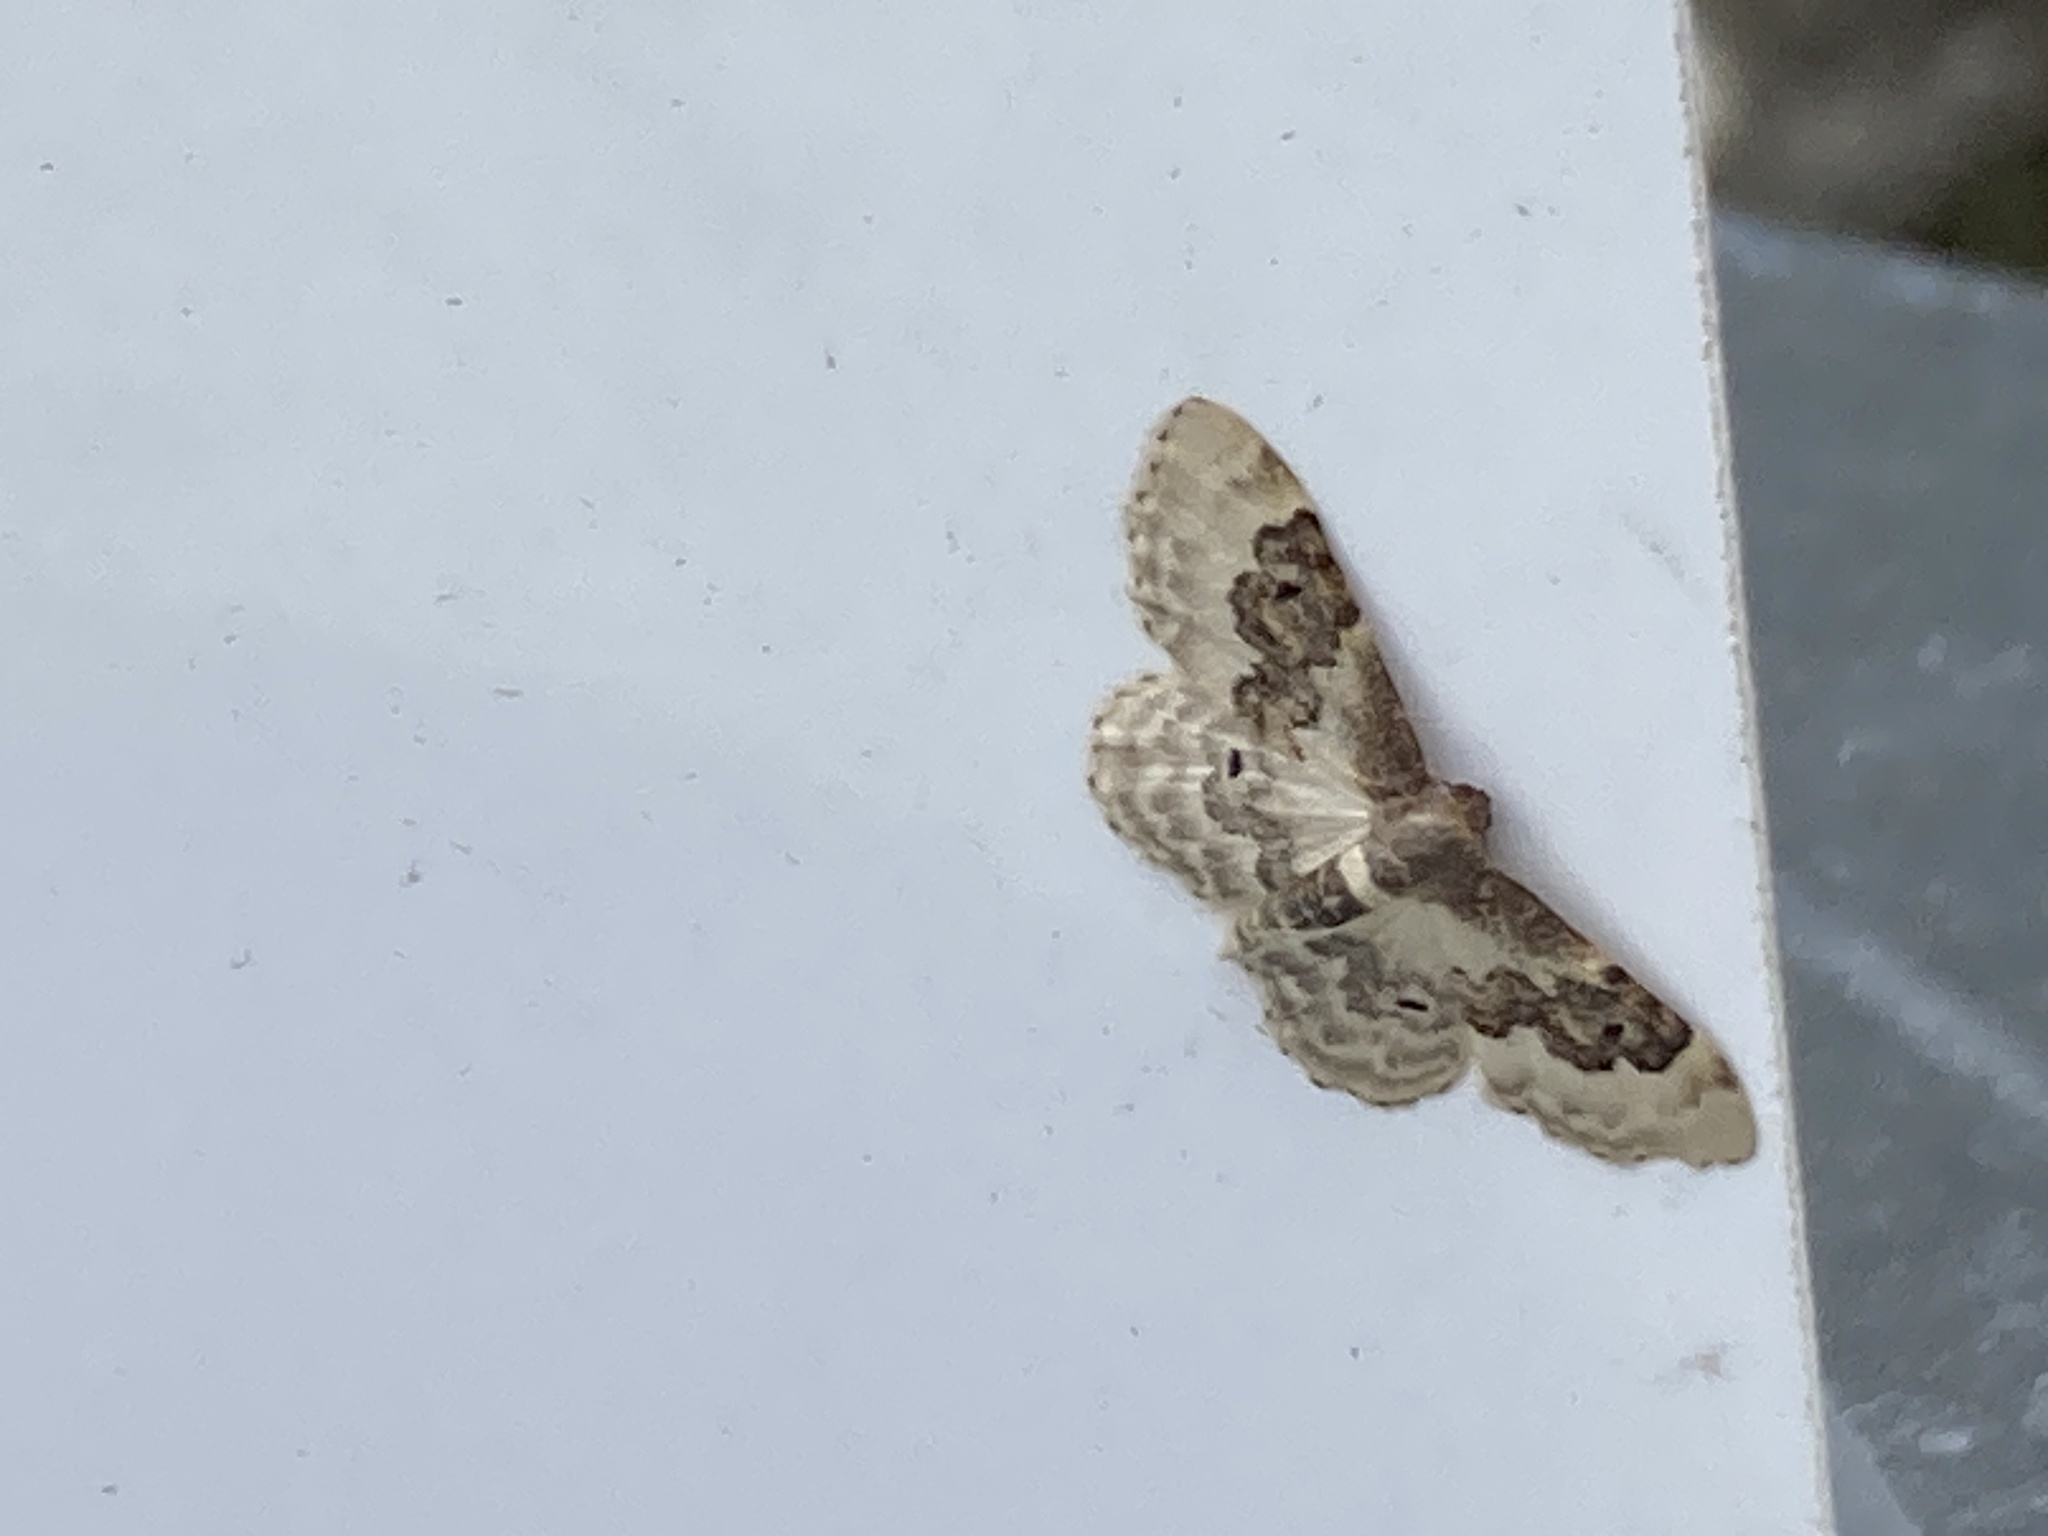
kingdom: Animalia
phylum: Arthropoda
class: Insecta
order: Lepidoptera
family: Geometridae
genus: Idaea
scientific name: Idaea rusticata
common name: Least carpet
